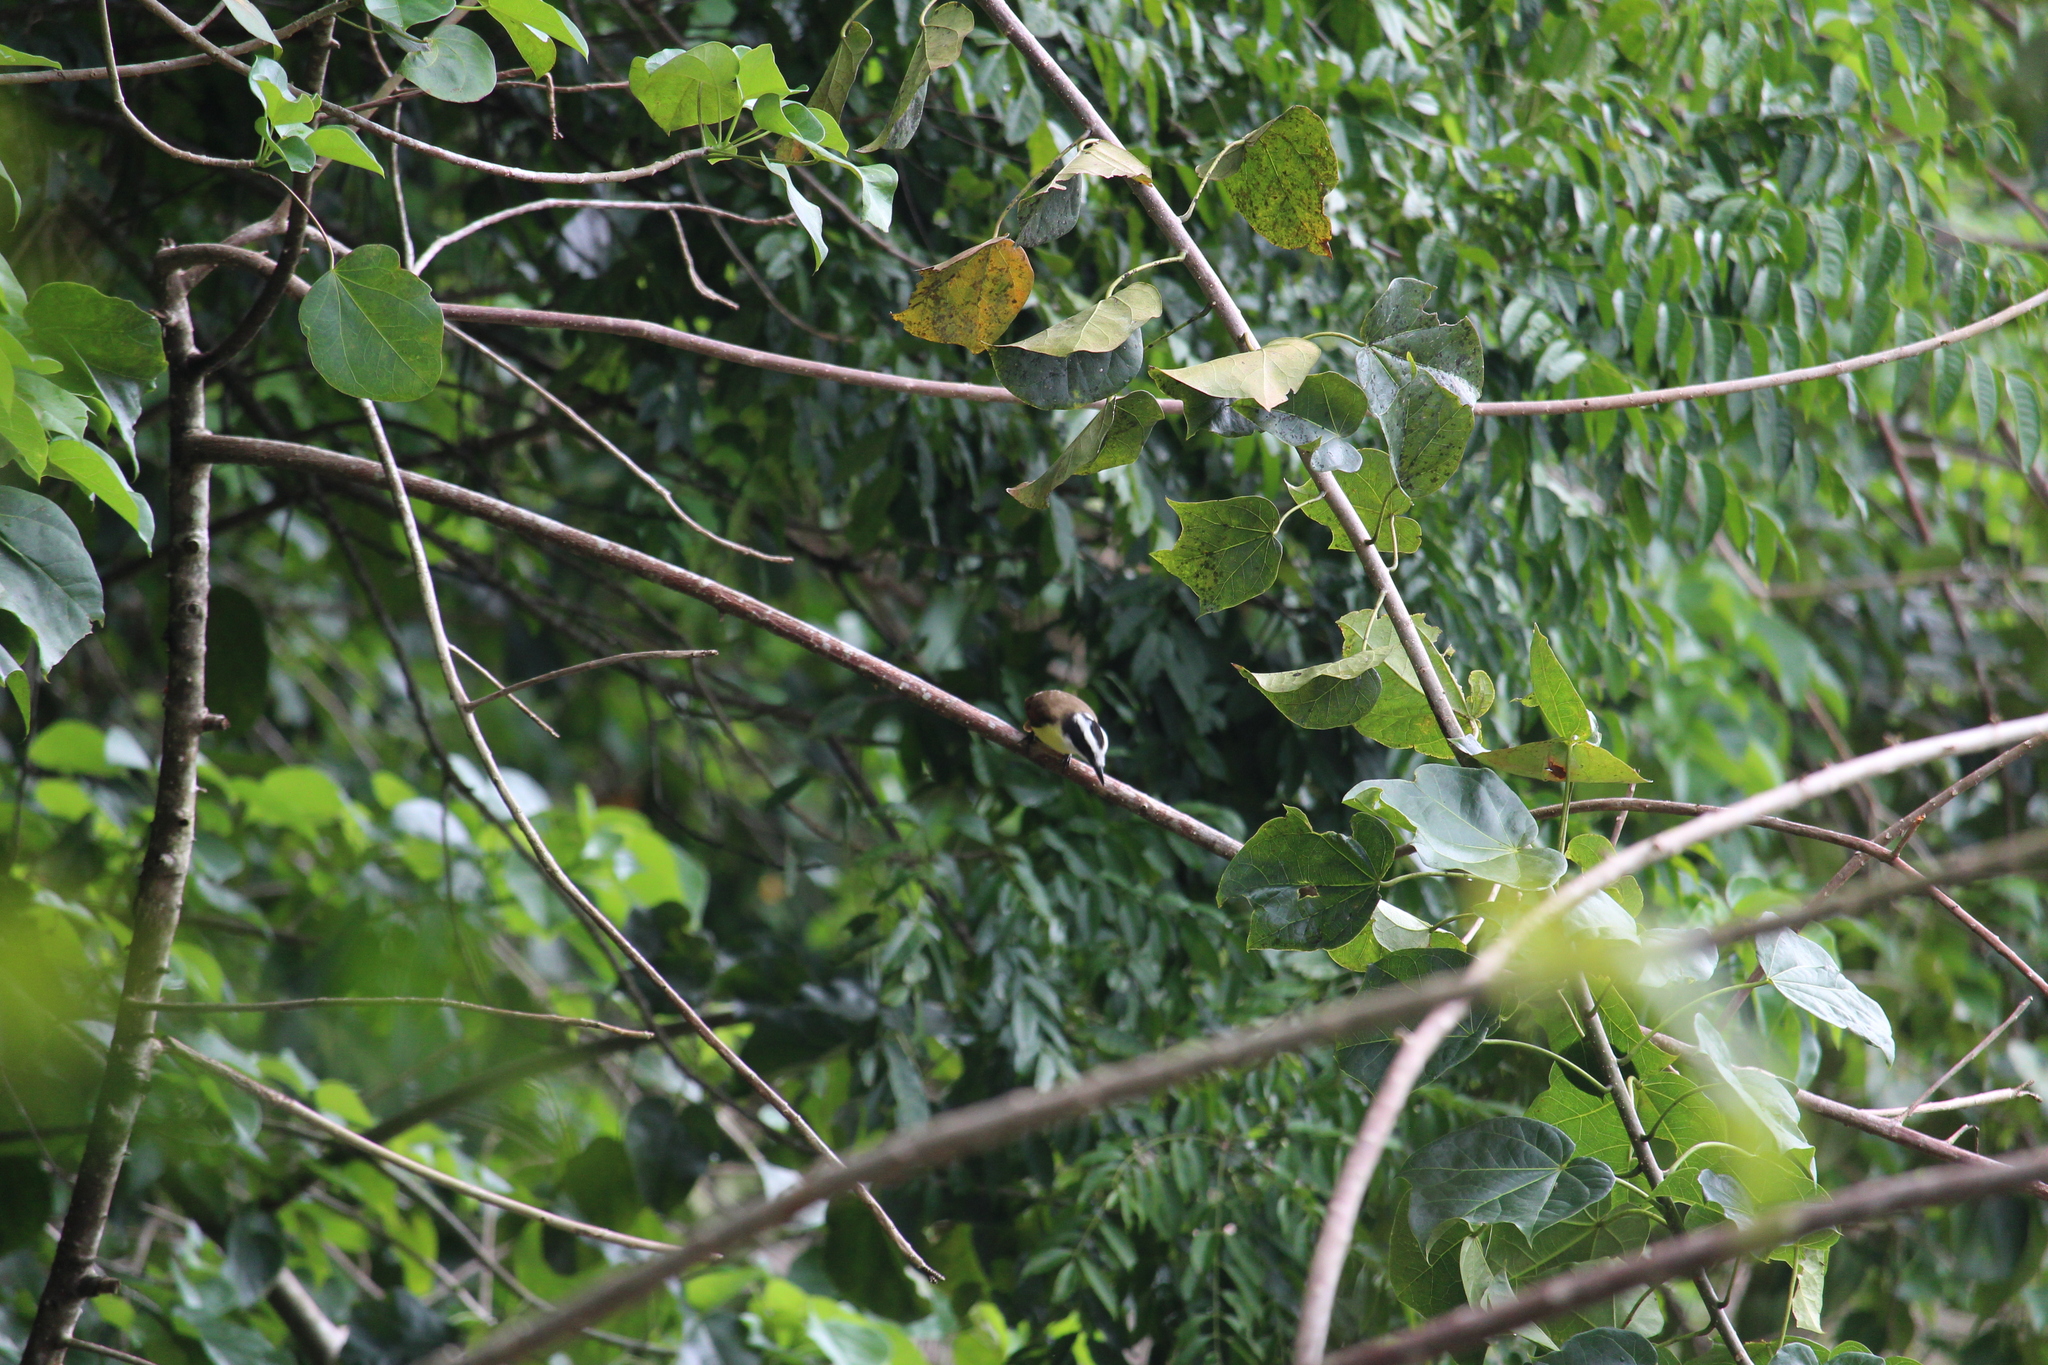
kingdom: Animalia
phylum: Chordata
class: Aves
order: Passeriformes
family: Tyrannidae
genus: Myiozetetes
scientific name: Myiozetetes similis
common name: Social flycatcher
